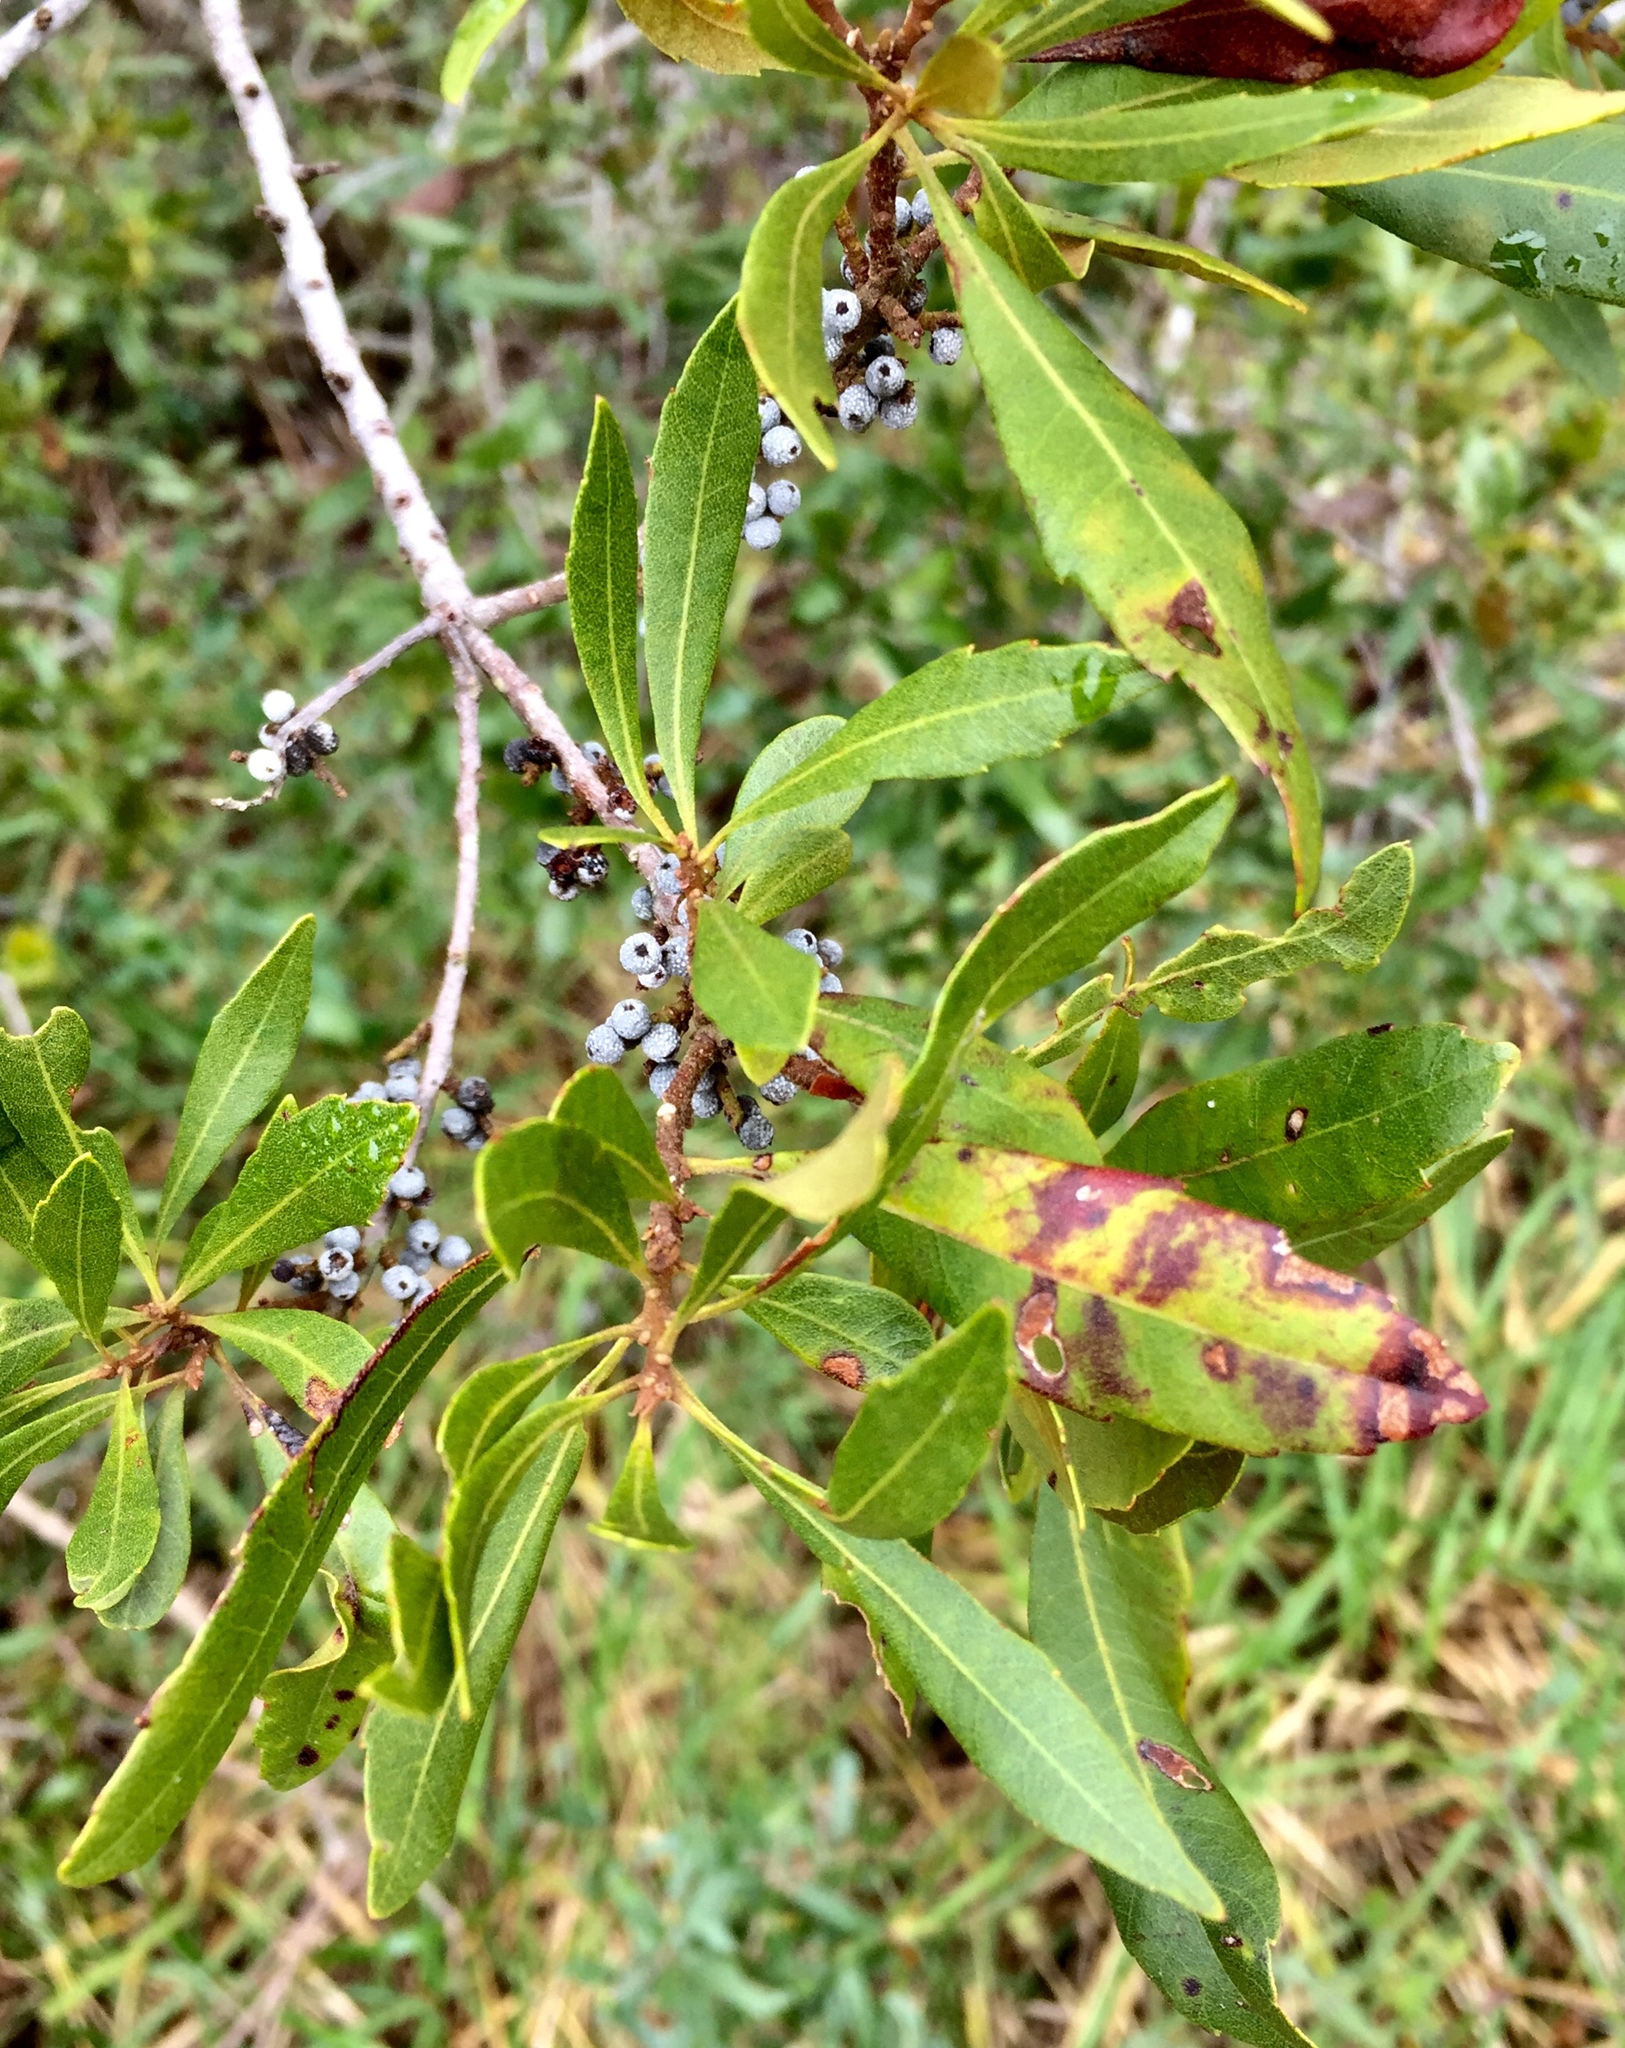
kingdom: Plantae
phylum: Tracheophyta
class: Magnoliopsida
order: Fagales
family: Myricaceae
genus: Morella
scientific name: Morella cerifera
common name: Wax myrtle
